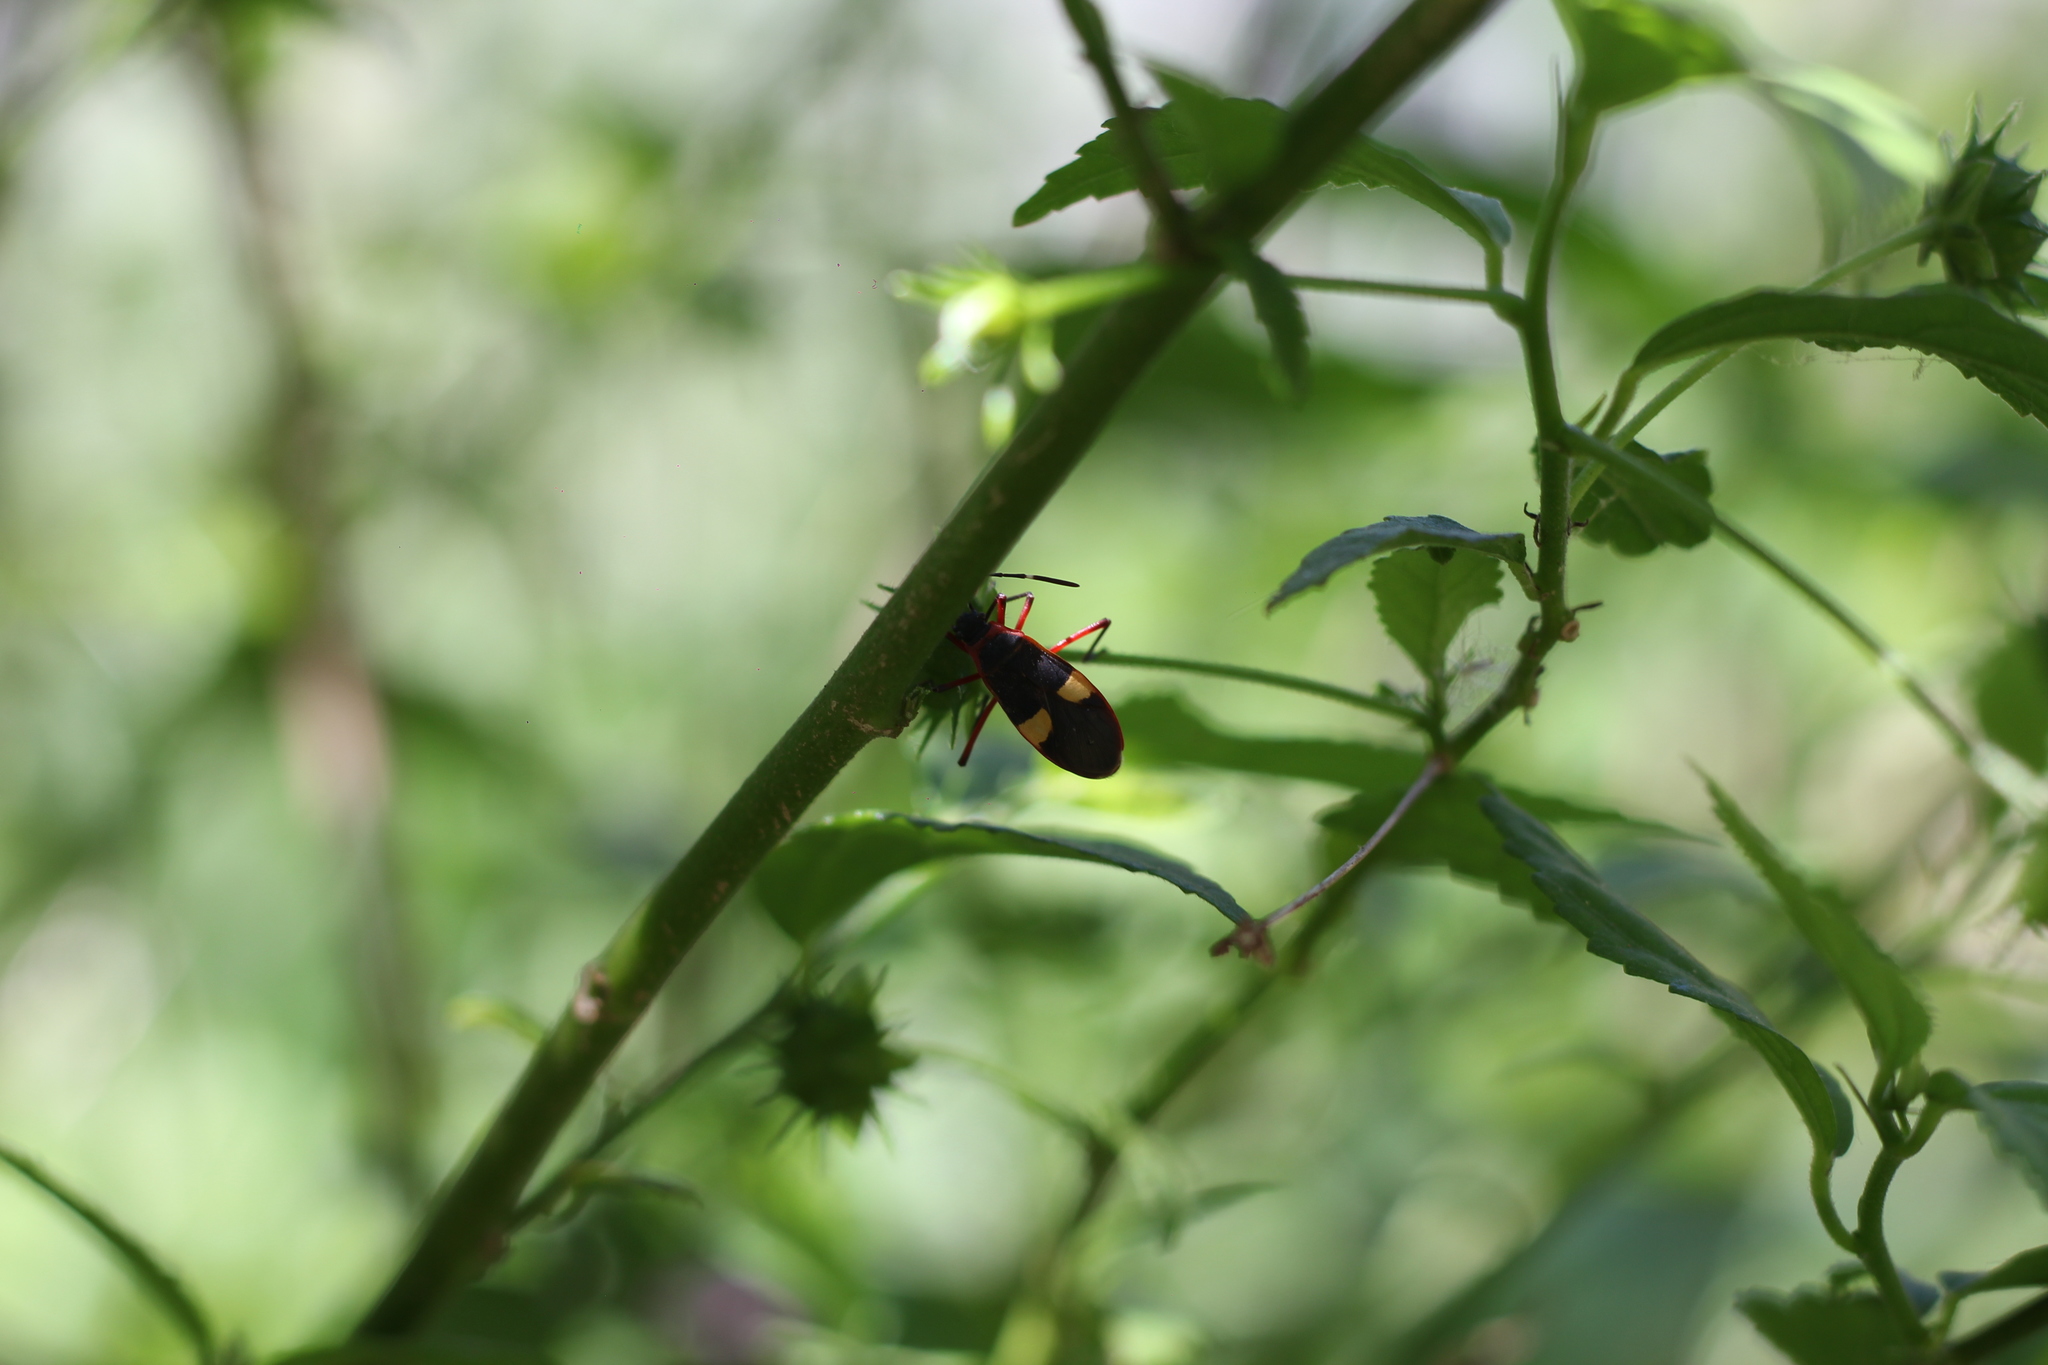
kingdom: Animalia
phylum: Arthropoda
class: Insecta
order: Hemiptera
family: Pyrrhocoridae
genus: Dysdercus
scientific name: Dysdercus albofasciatus
